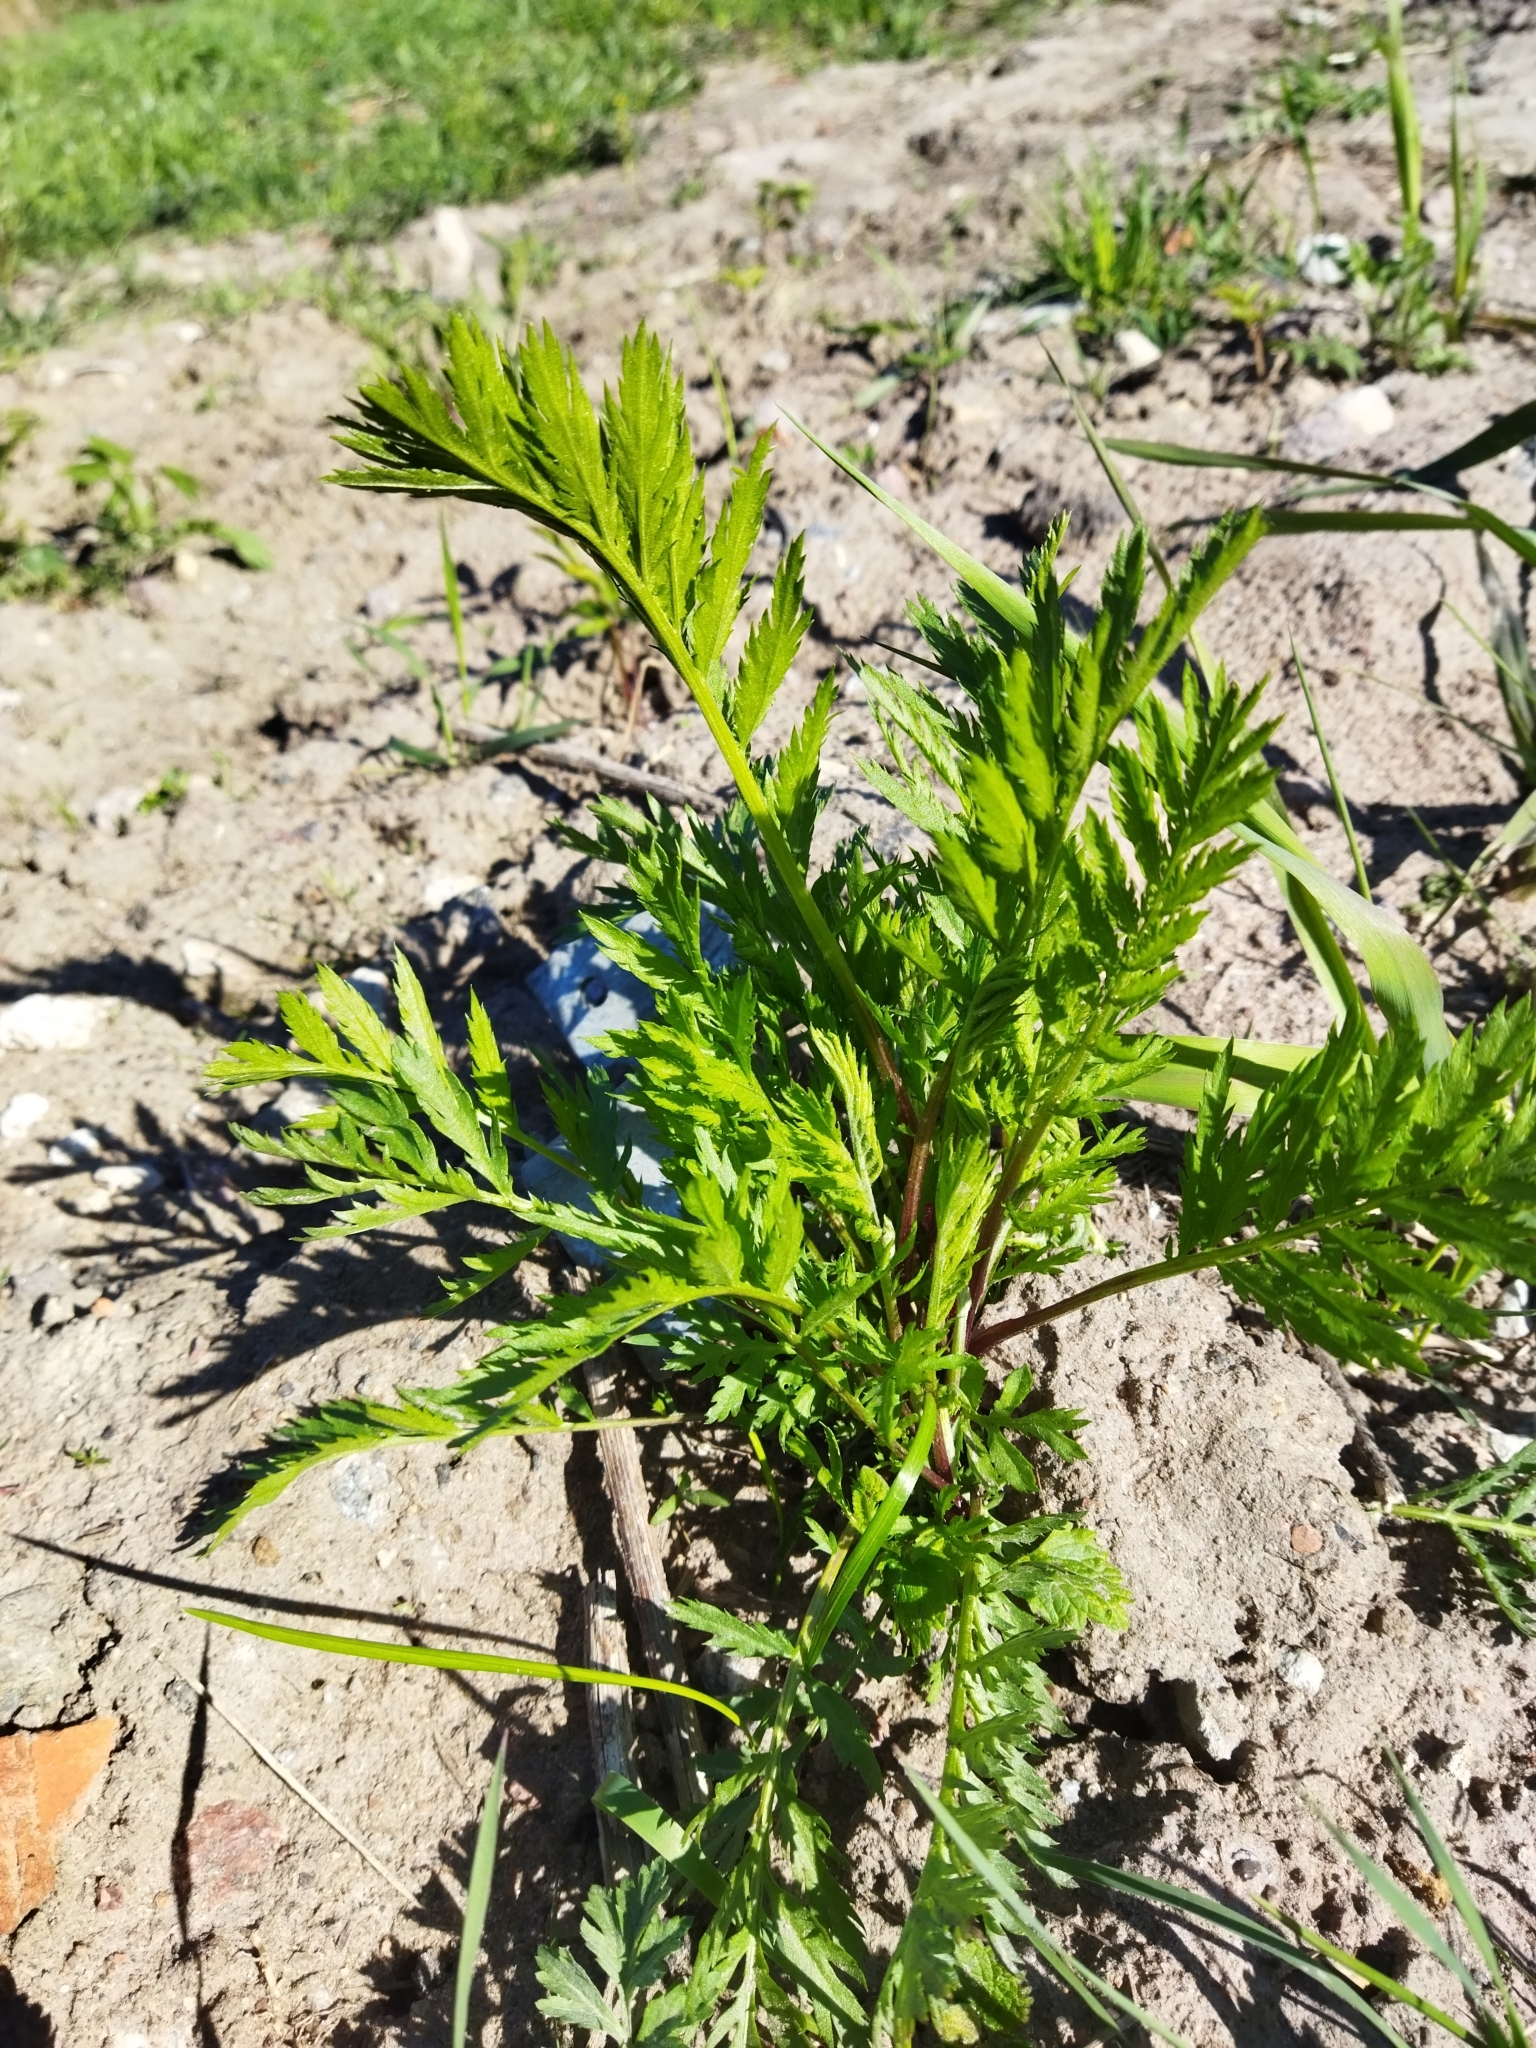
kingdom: Plantae
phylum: Tracheophyta
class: Magnoliopsida
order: Asterales
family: Asteraceae
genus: Tanacetum
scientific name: Tanacetum vulgare
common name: Common tansy
